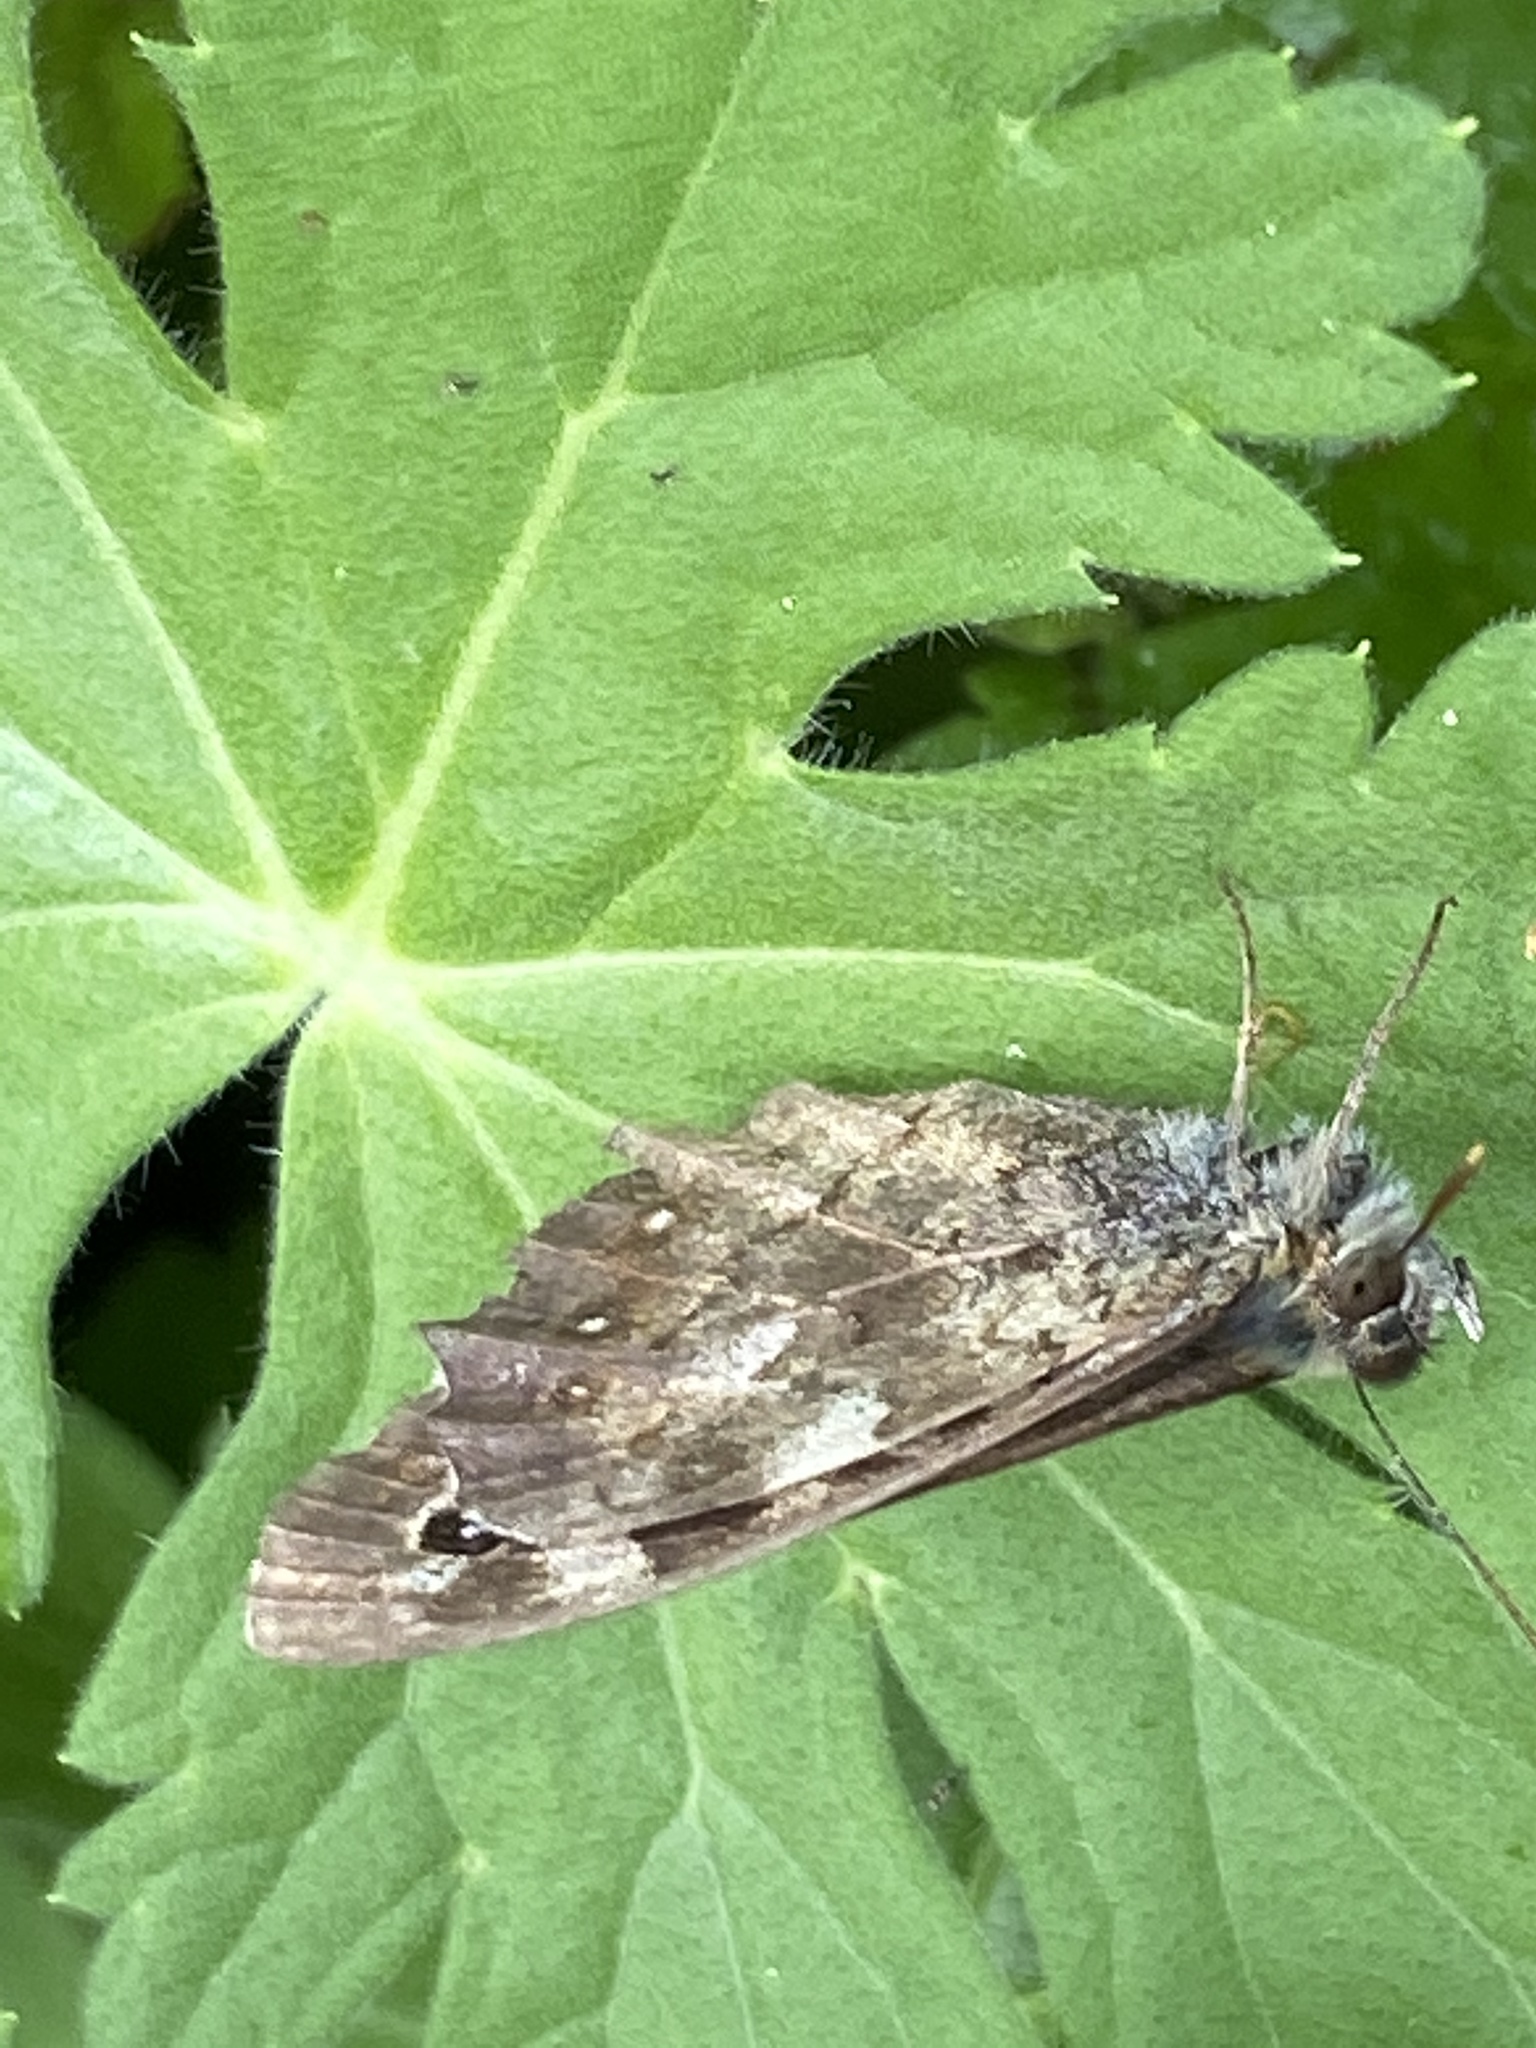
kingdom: Animalia
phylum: Arthropoda
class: Insecta
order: Lepidoptera
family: Nymphalidae
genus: Pararge
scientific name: Pararge aegeria
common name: Speckled wood
